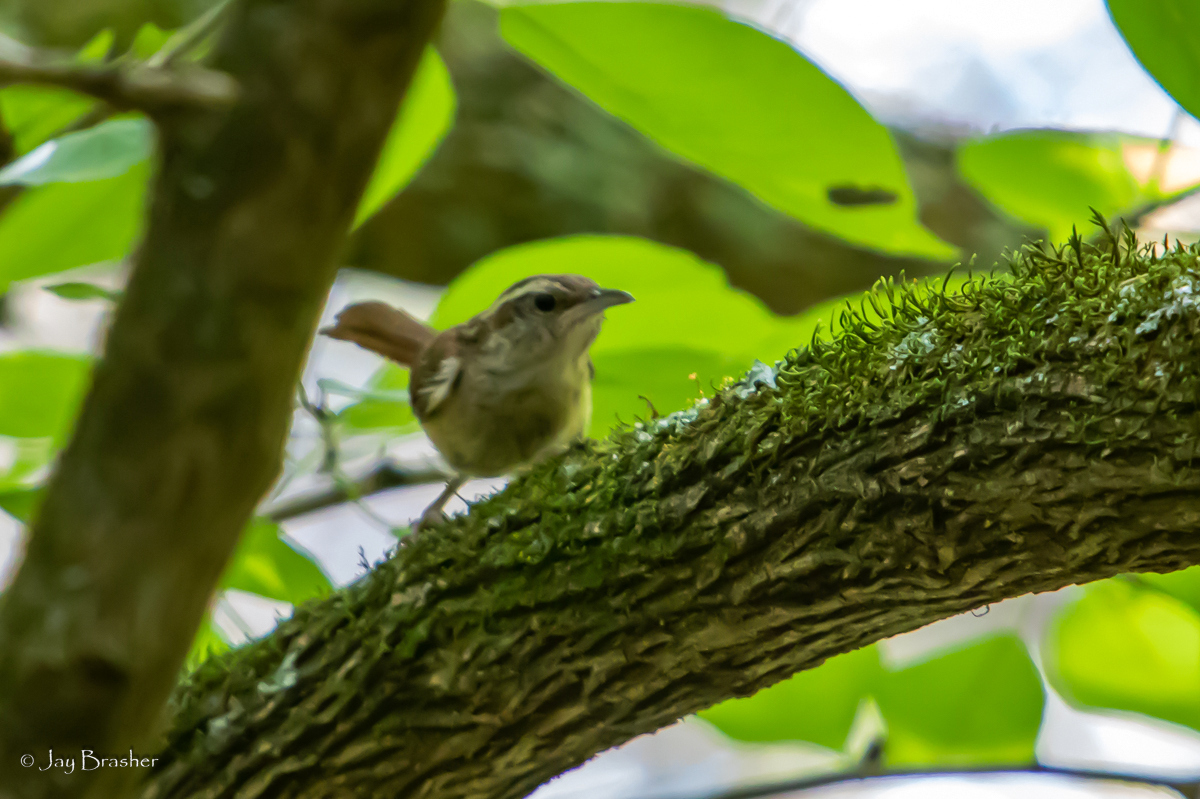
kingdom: Animalia
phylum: Chordata
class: Aves
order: Passeriformes
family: Troglodytidae
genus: Thryothorus
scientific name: Thryothorus ludovicianus
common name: Carolina wren
